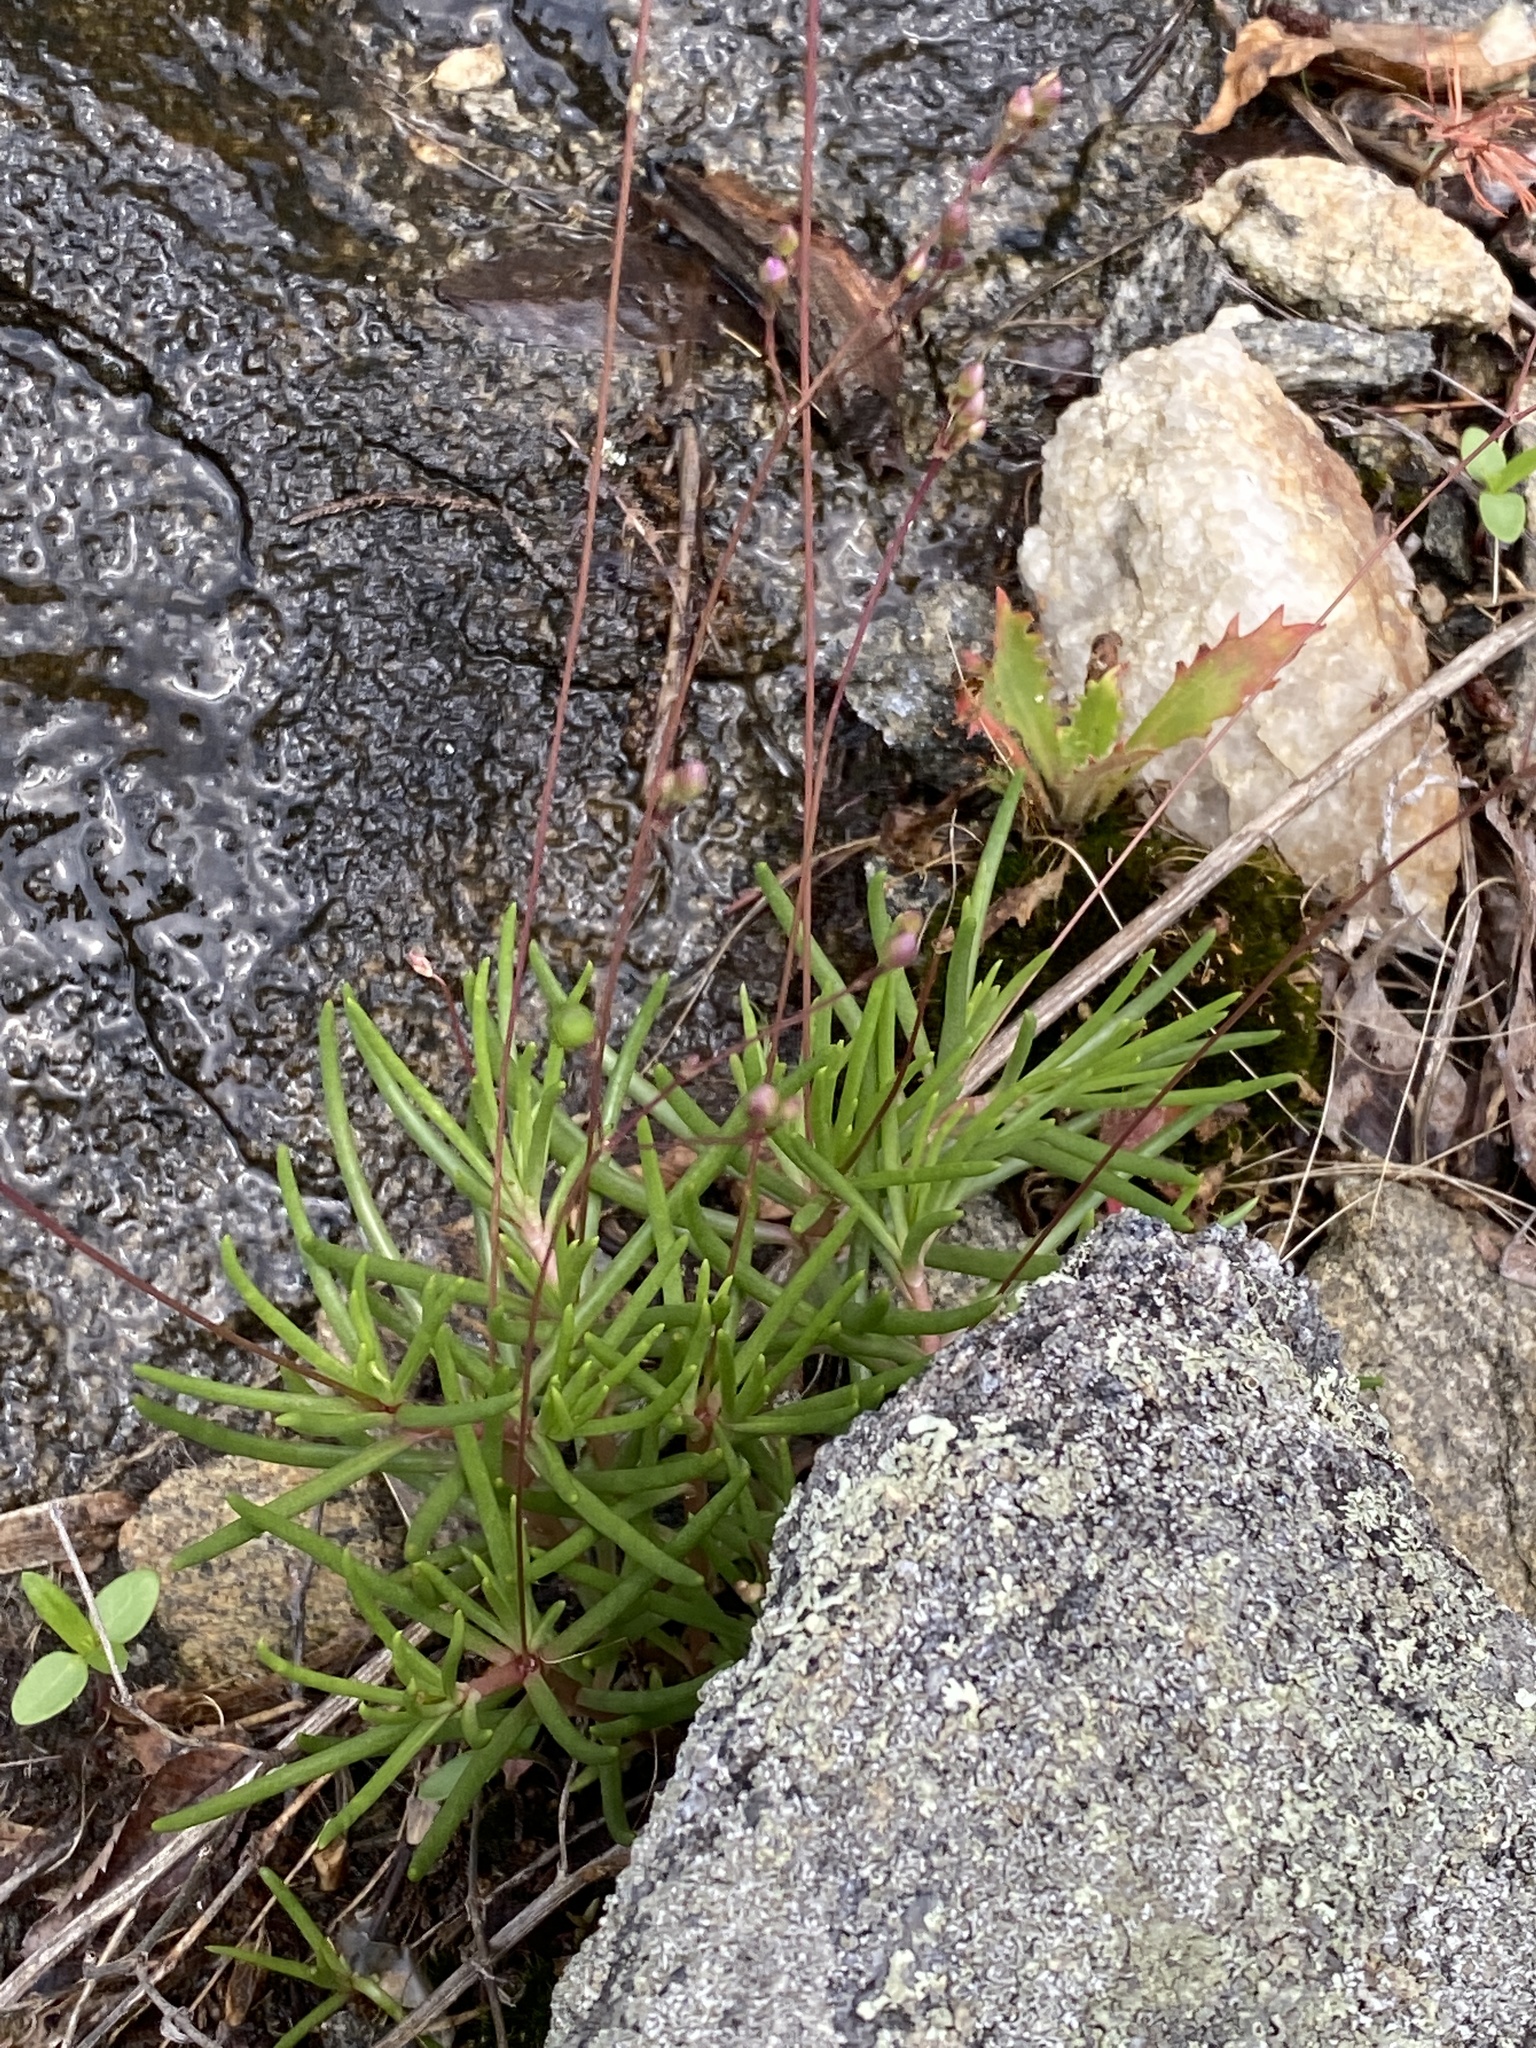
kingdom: Plantae
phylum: Tracheophyta
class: Magnoliopsida
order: Caryophyllales
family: Montiaceae
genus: Phemeranthus
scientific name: Phemeranthus teretifolius
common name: Quill fameflower
